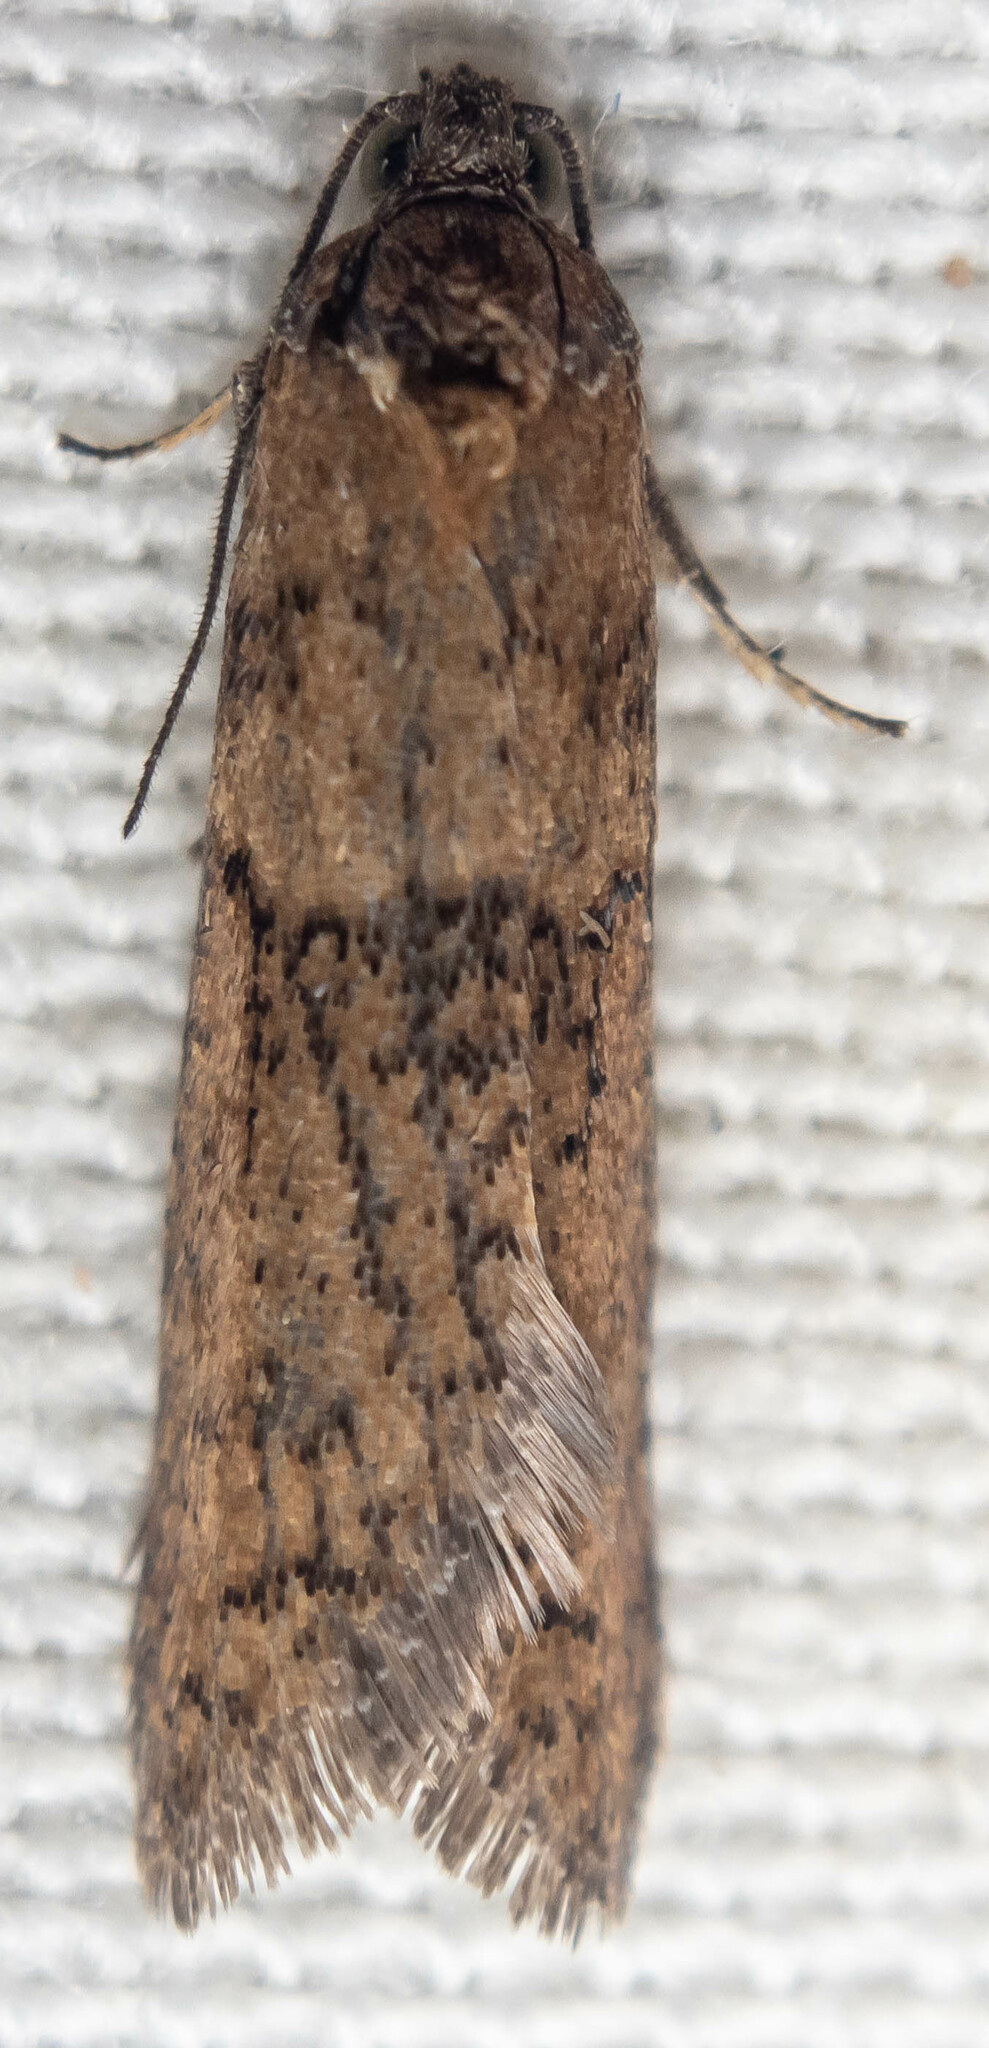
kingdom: Animalia
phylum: Arthropoda
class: Insecta
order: Lepidoptera
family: Tortricidae
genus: Tortricodes
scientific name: Tortricodes alternella
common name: Winter shade
